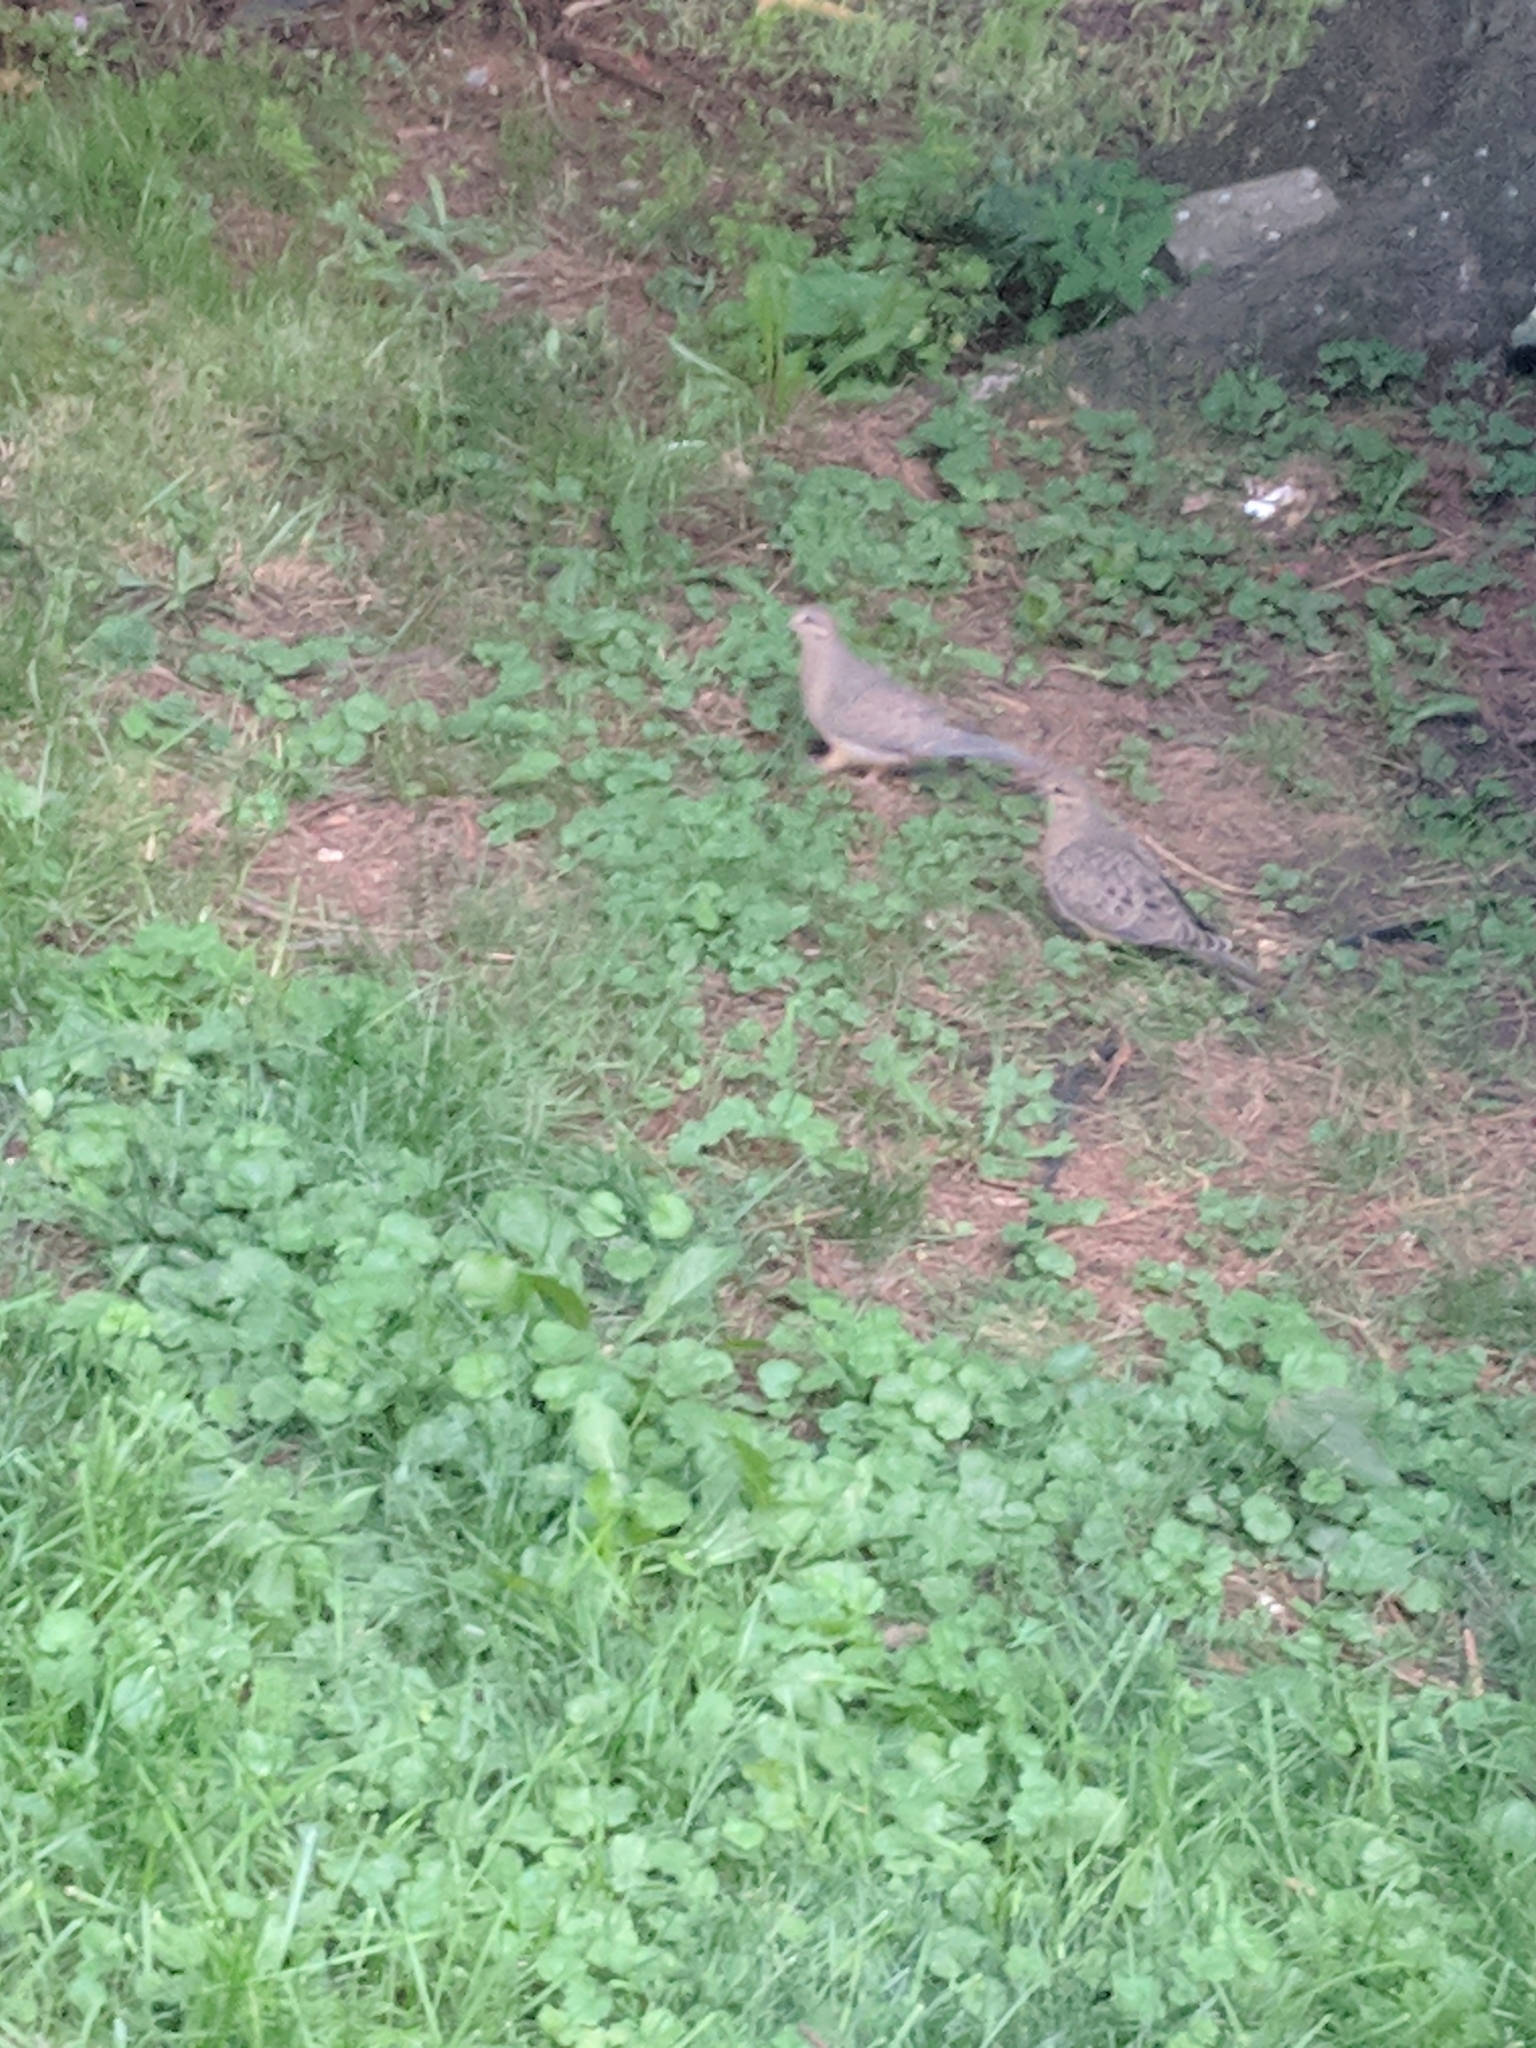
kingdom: Animalia
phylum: Chordata
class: Aves
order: Columbiformes
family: Columbidae
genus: Zenaida
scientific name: Zenaida macroura
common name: Mourning dove
